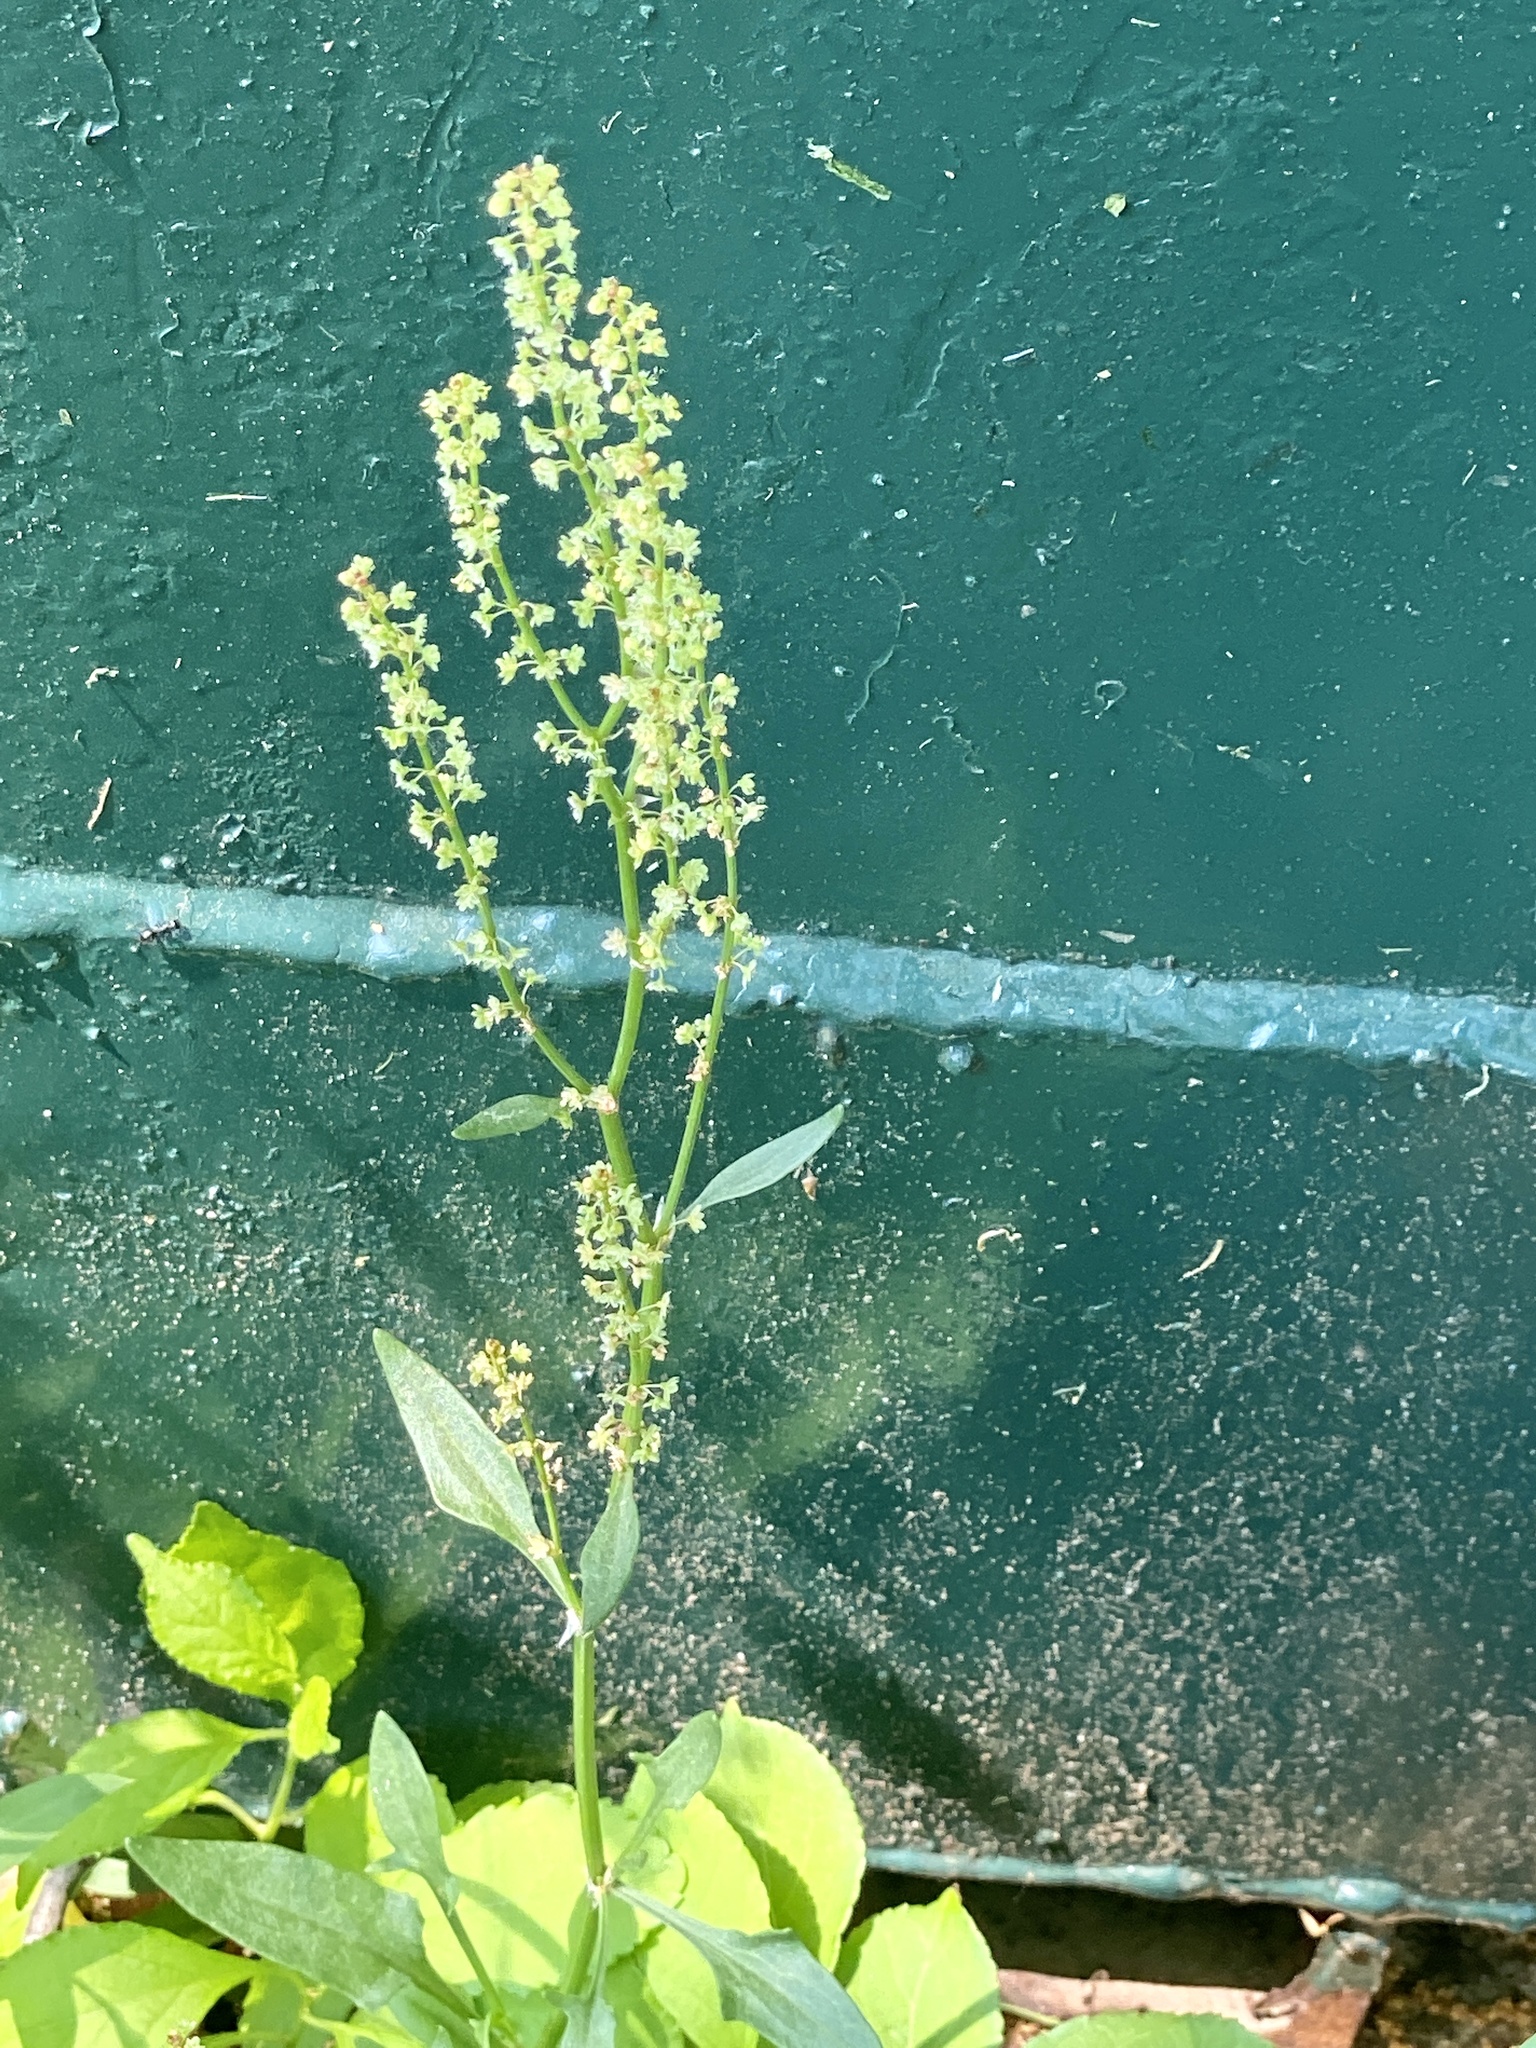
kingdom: Plantae
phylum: Tracheophyta
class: Magnoliopsida
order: Caryophyllales
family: Polygonaceae
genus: Rumex
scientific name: Rumex acetosella
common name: Common sheep sorrel
